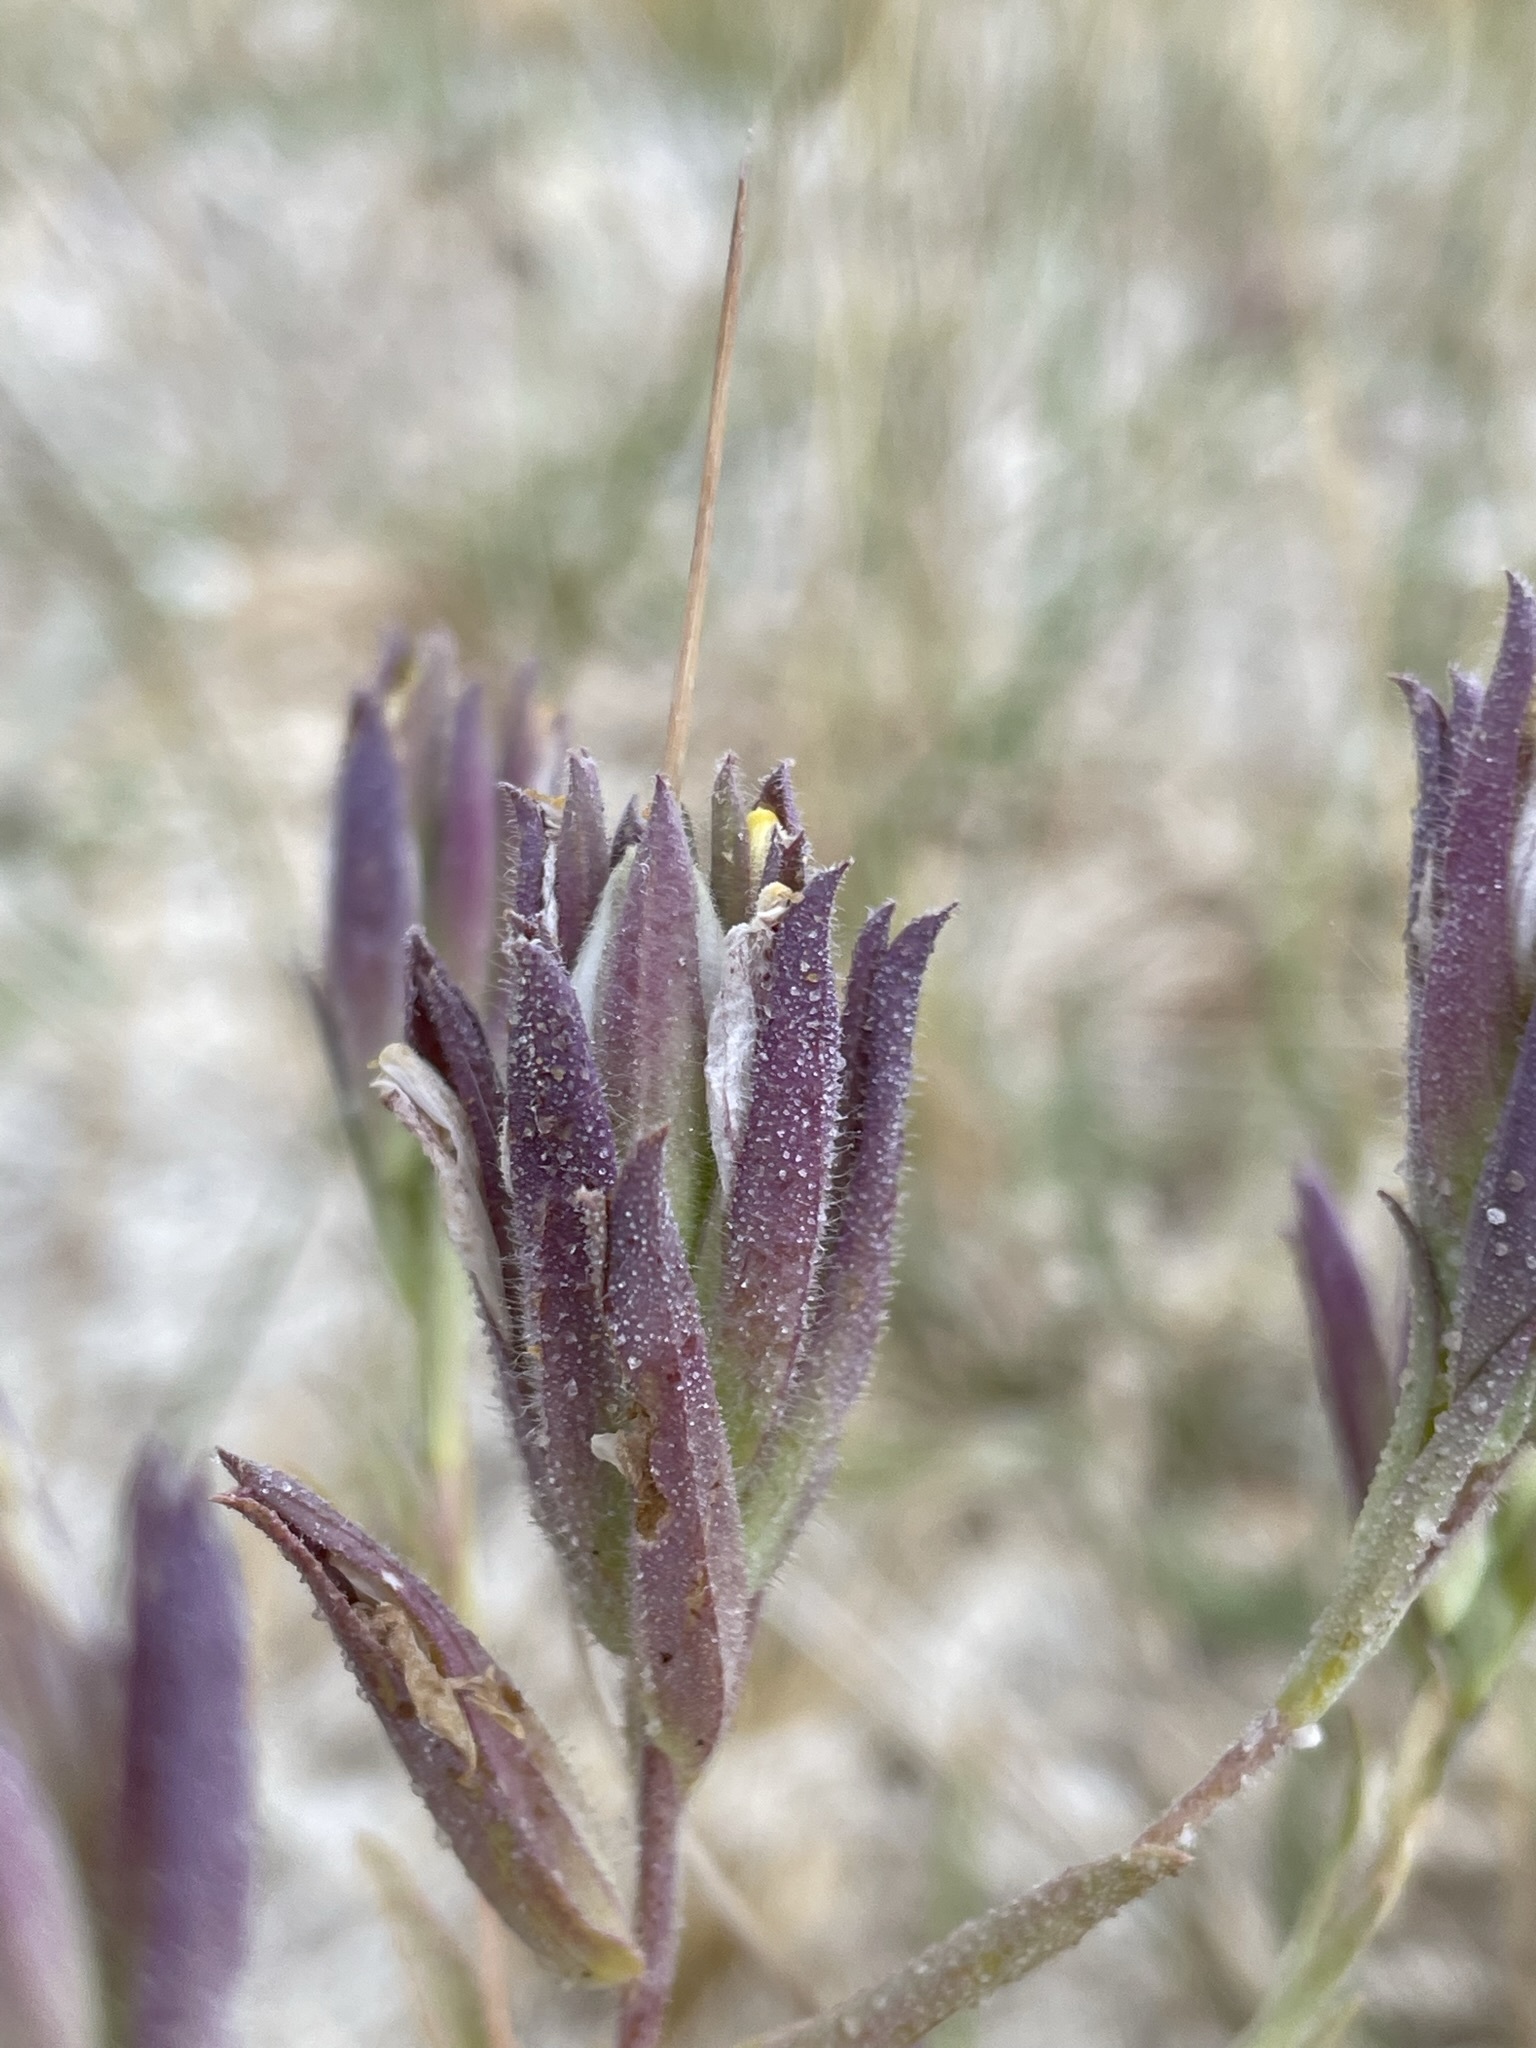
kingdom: Plantae
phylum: Tracheophyta
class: Magnoliopsida
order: Lamiales
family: Orobanchaceae
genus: Chloropyron
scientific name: Chloropyron maritimum
